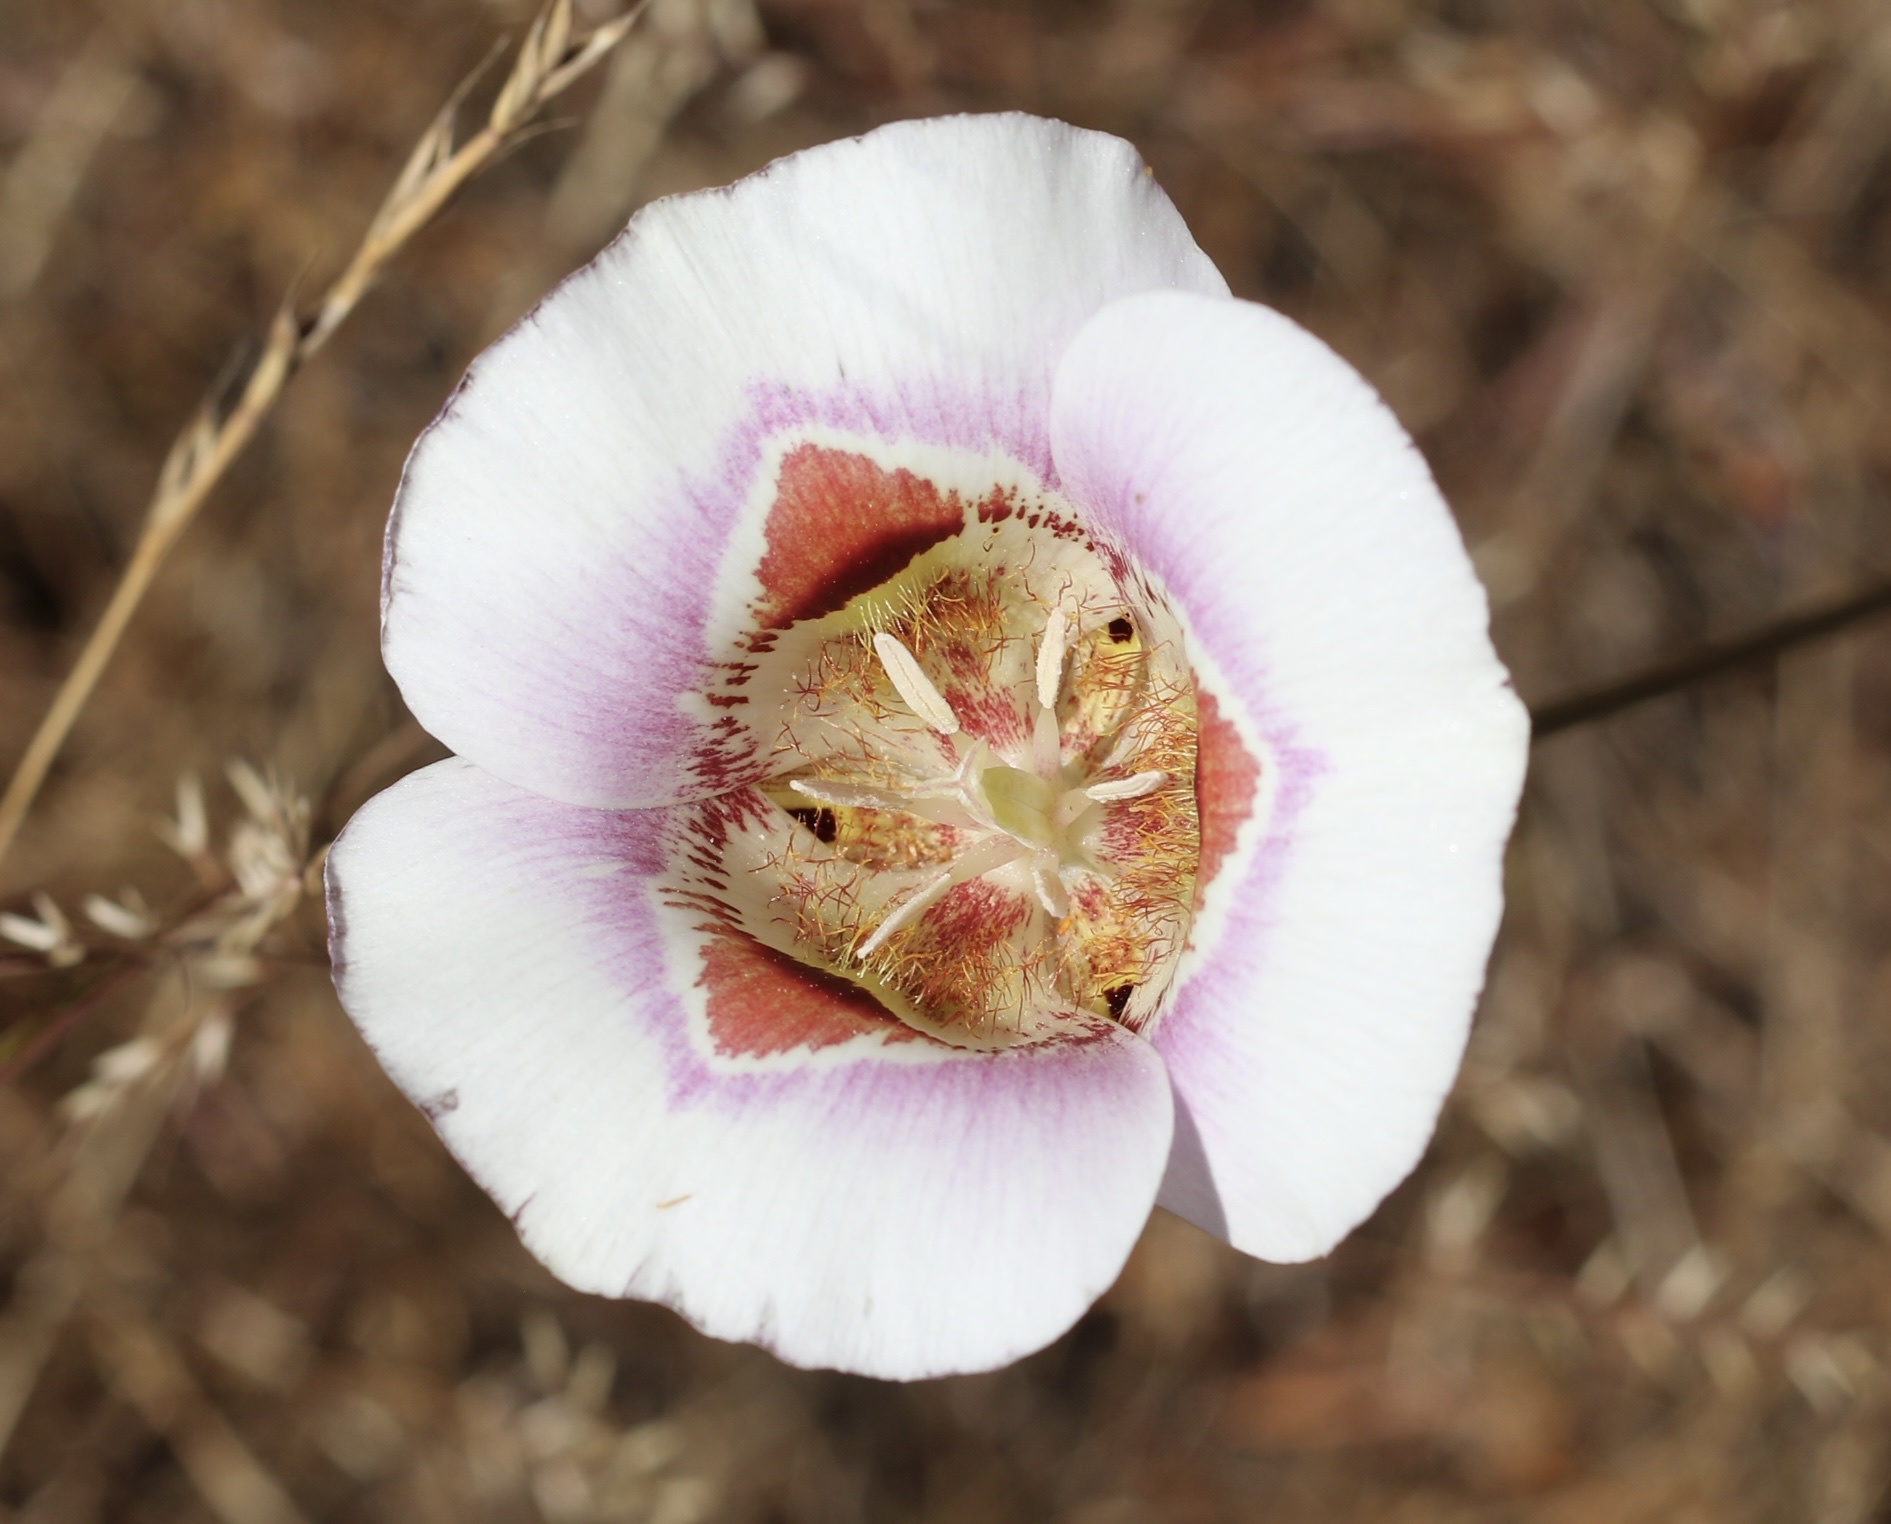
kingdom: Plantae
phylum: Tracheophyta
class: Liliopsida
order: Liliales
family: Liliaceae
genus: Calochortus
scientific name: Calochortus argillosus
